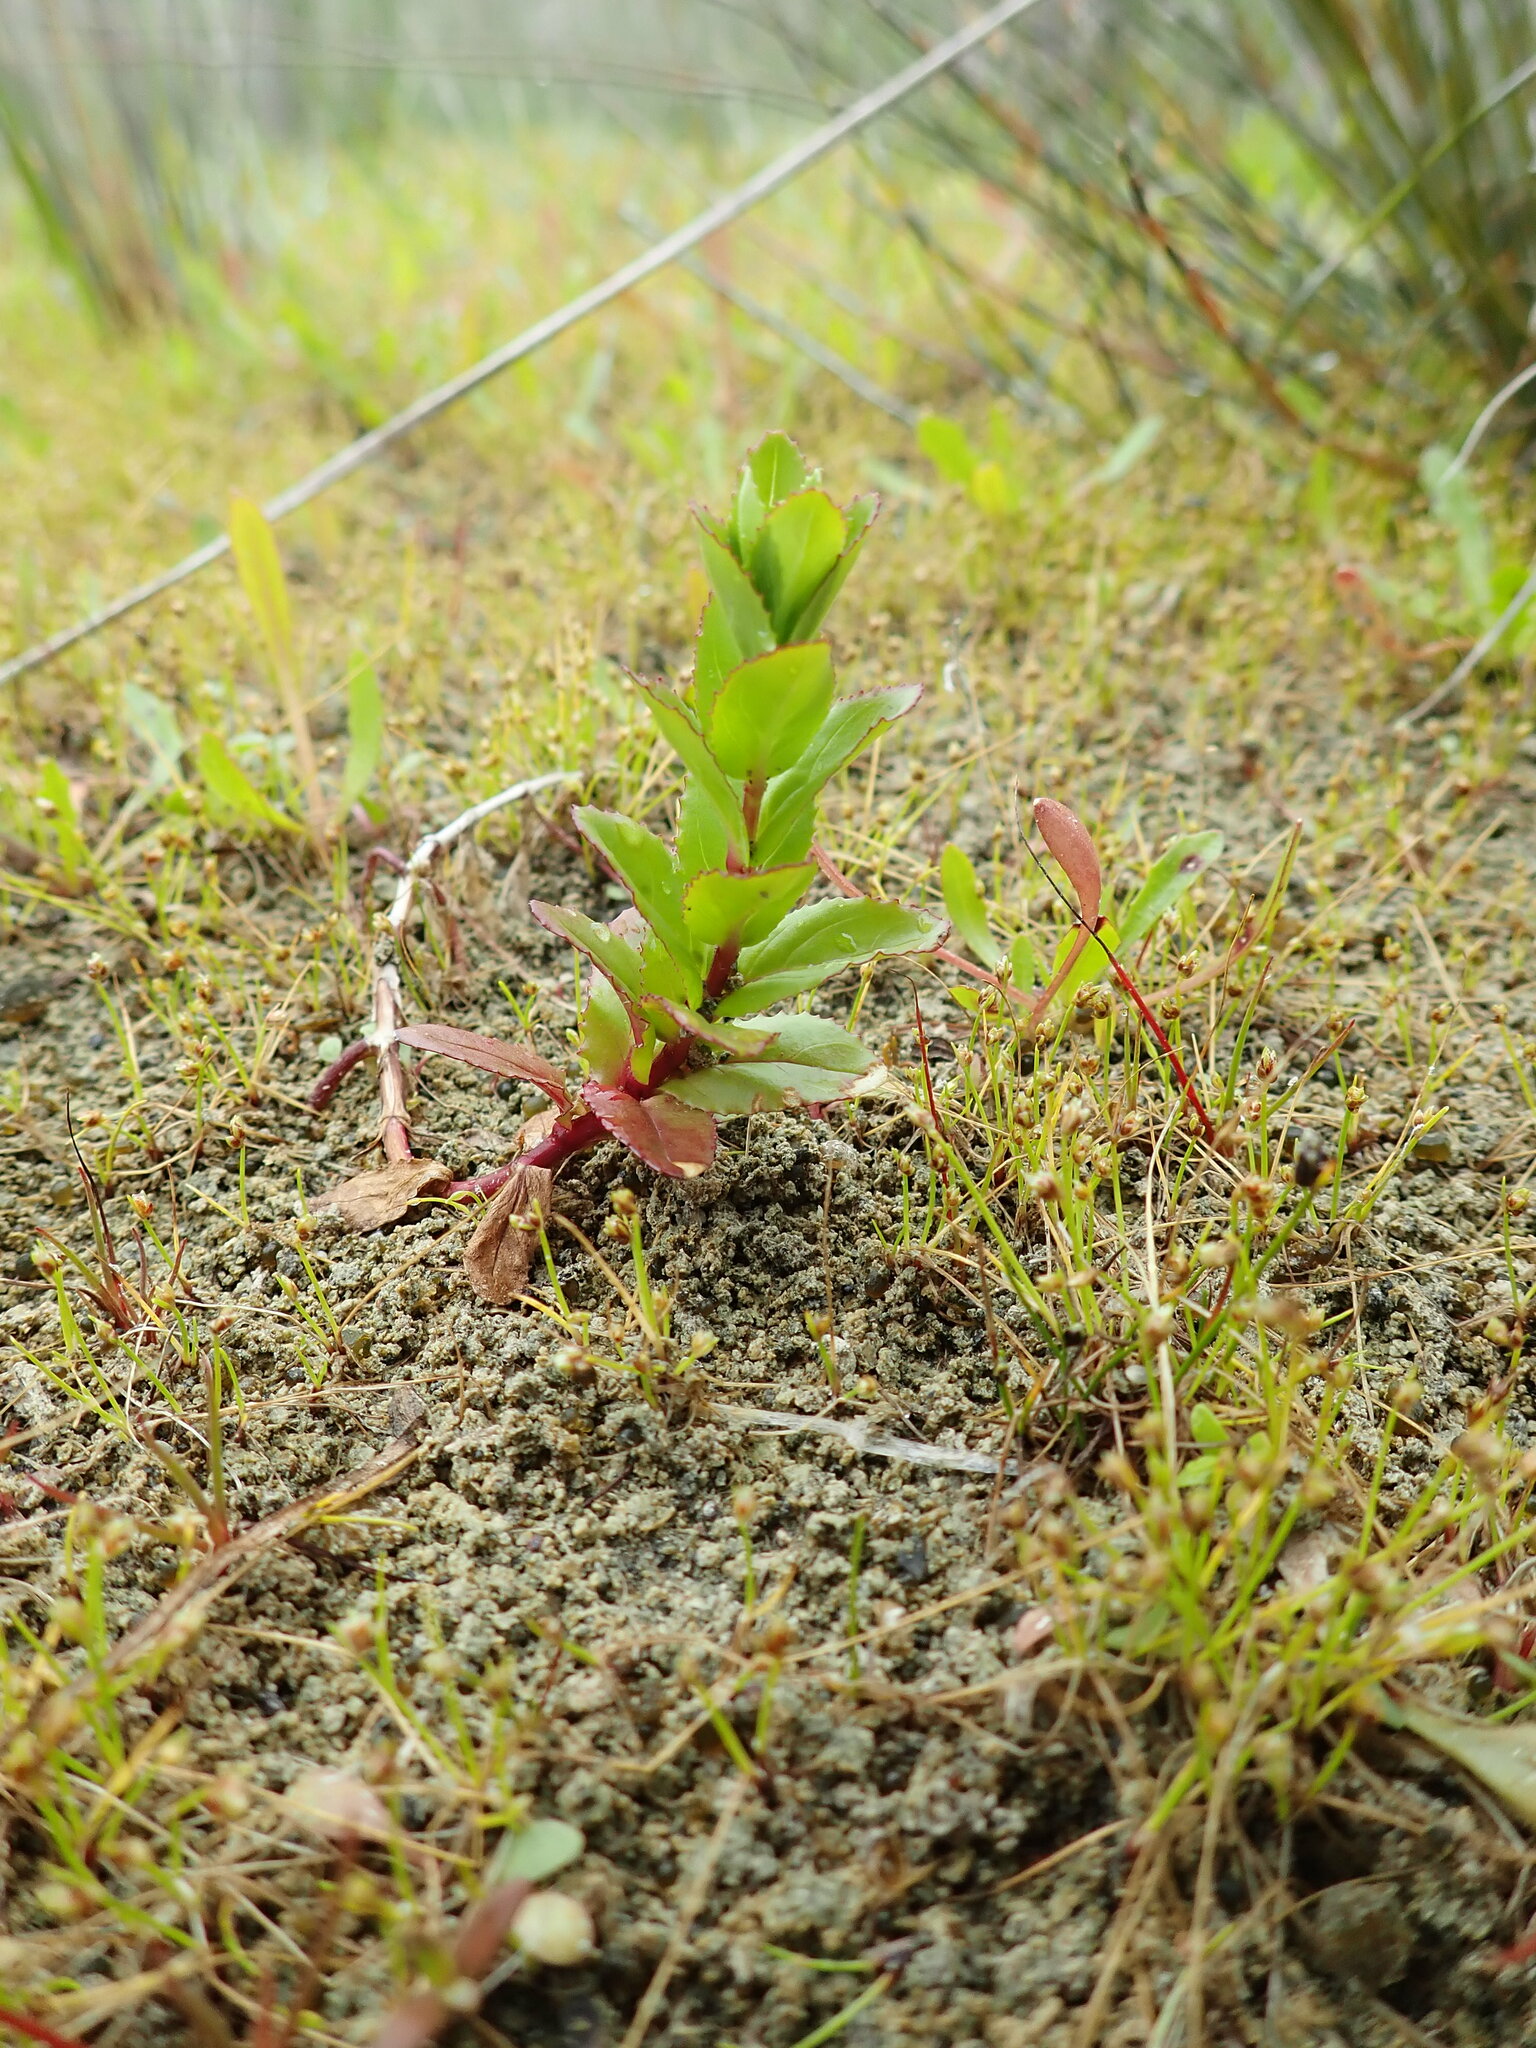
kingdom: Plantae
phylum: Tracheophyta
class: Magnoliopsida
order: Myrtales
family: Onagraceae
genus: Epilobium
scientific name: Epilobium billardiereanum
